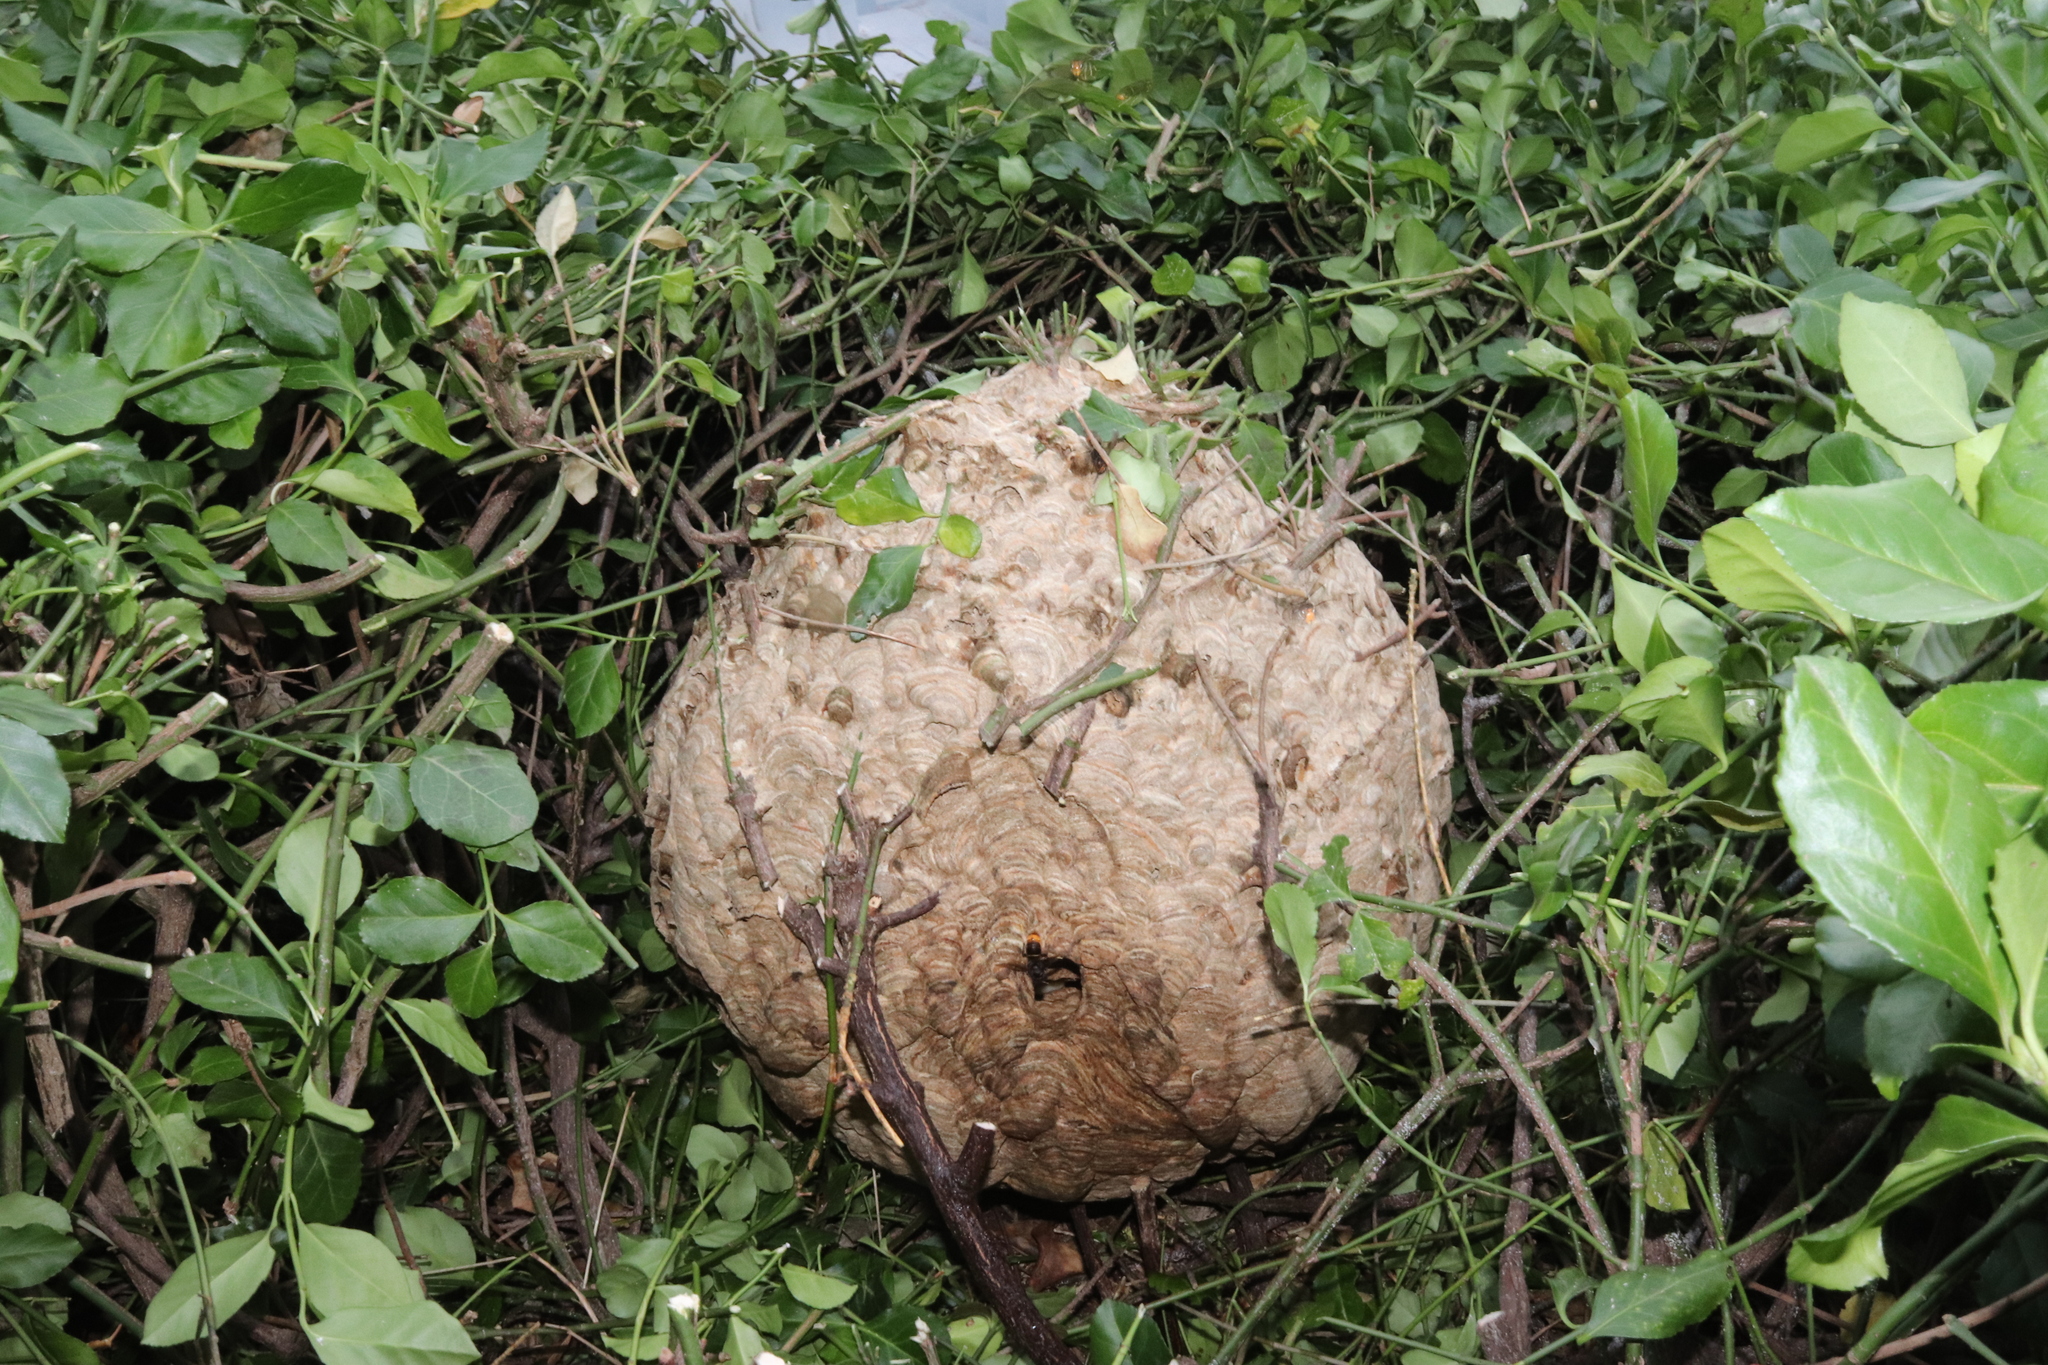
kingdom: Animalia
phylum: Arthropoda
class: Insecta
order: Hymenoptera
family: Vespidae
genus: Vespa
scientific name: Vespa velutina
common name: Asian hornet
